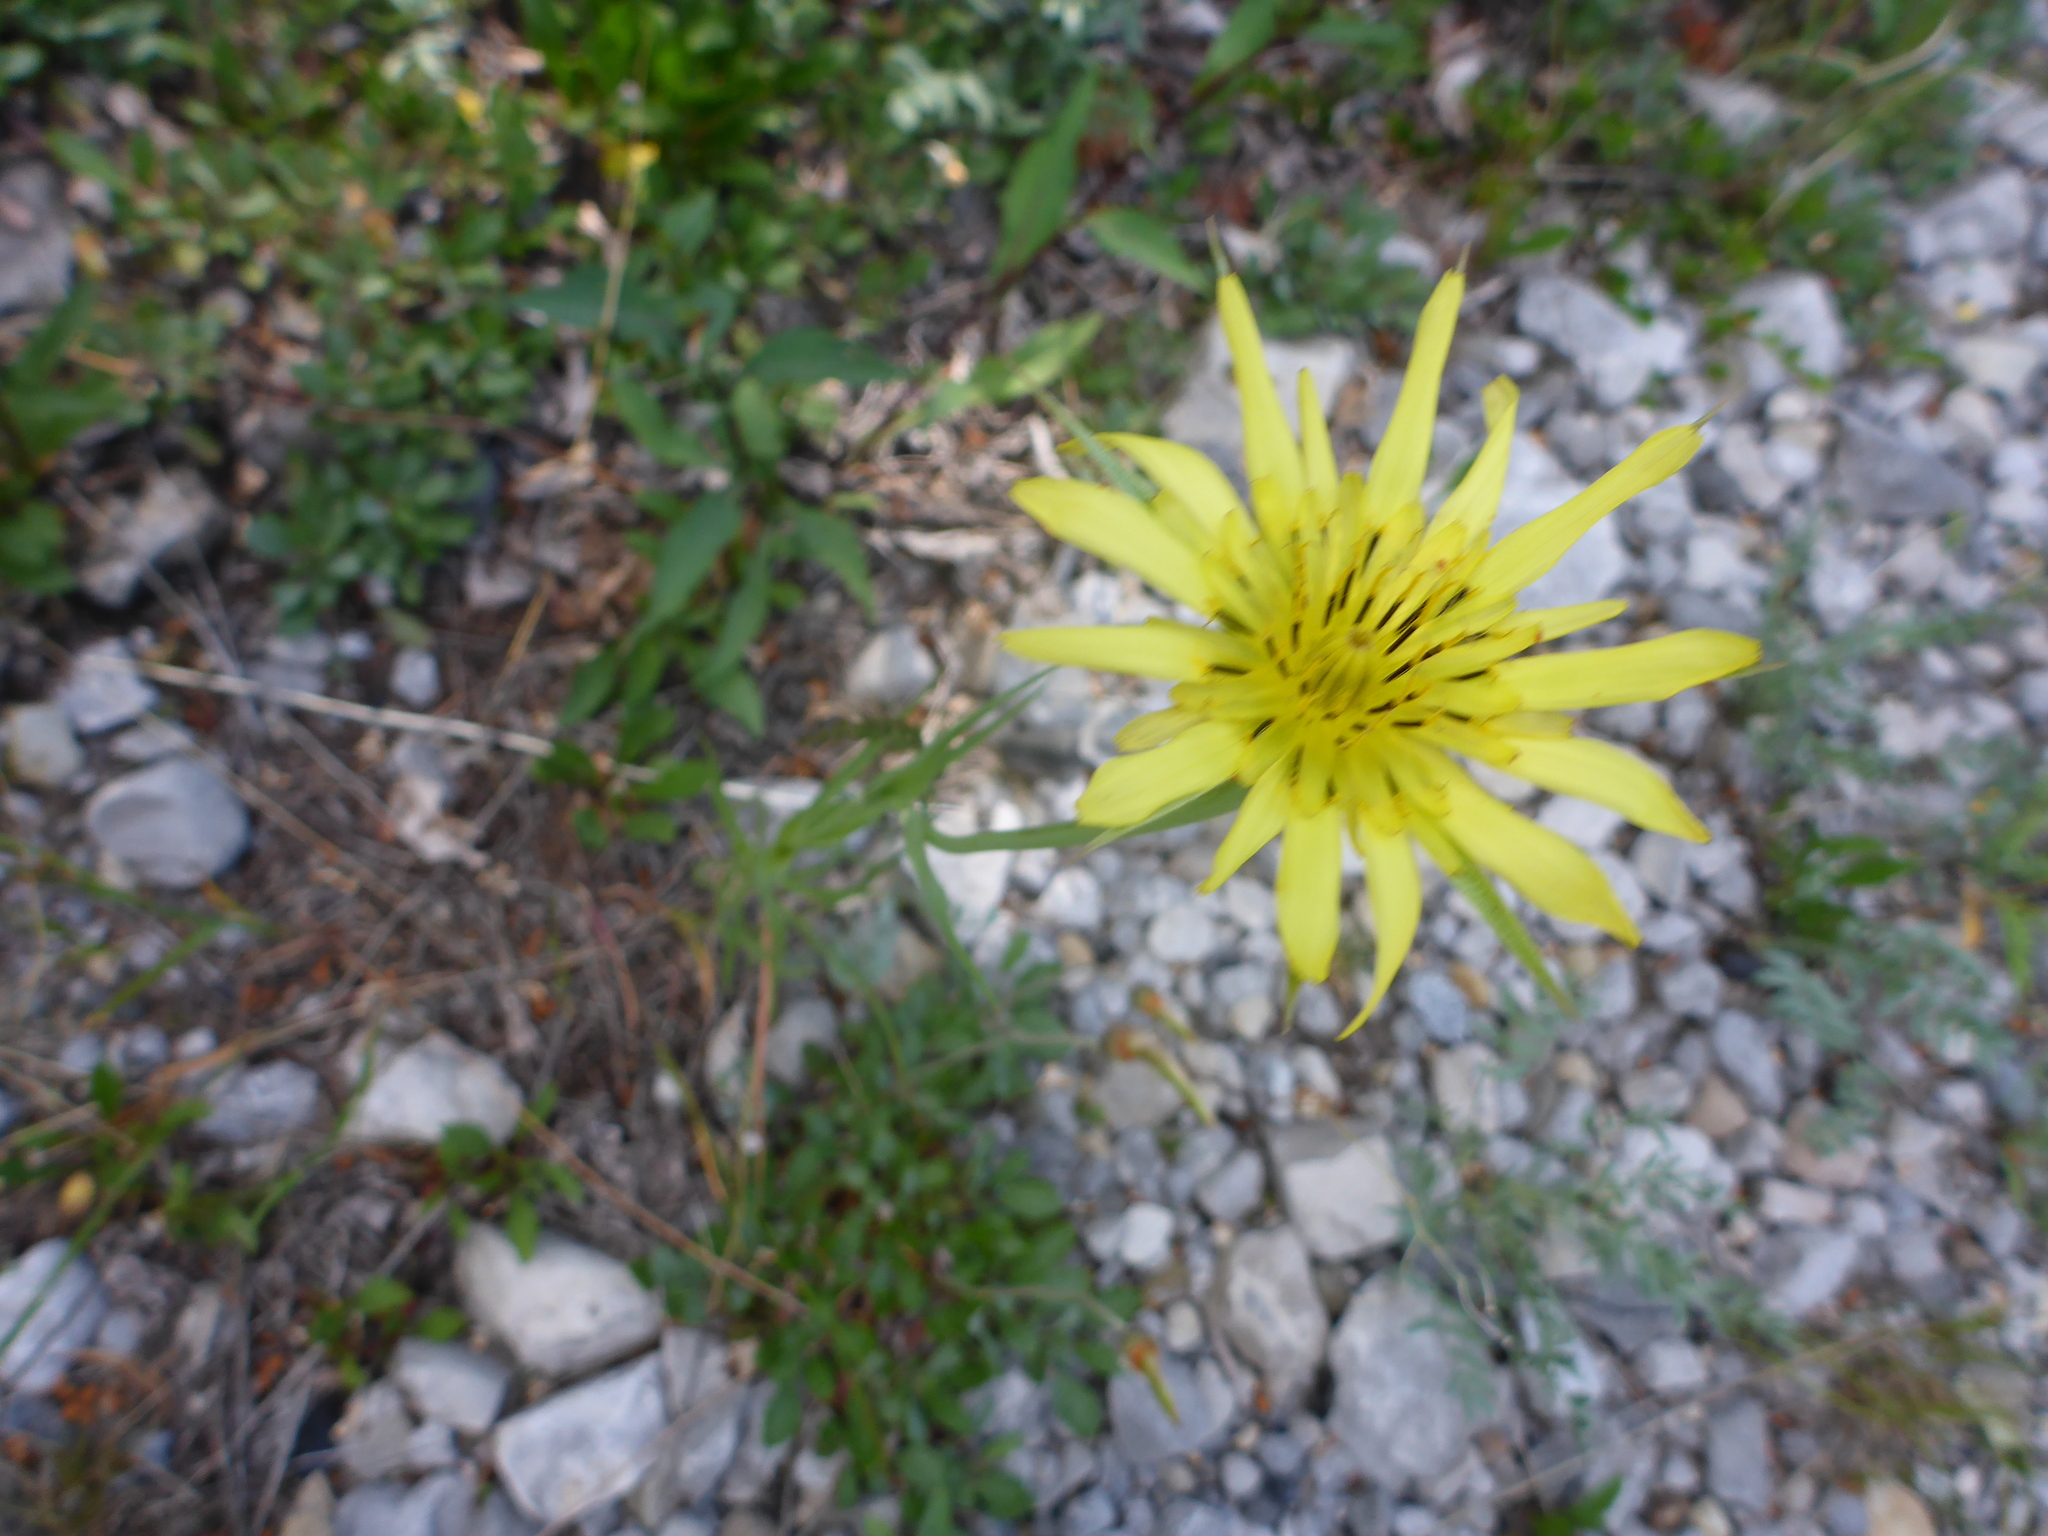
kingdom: Plantae
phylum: Tracheophyta
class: Magnoliopsida
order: Asterales
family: Asteraceae
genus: Tragopogon
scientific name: Tragopogon pratensis
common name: Goat's-beard
